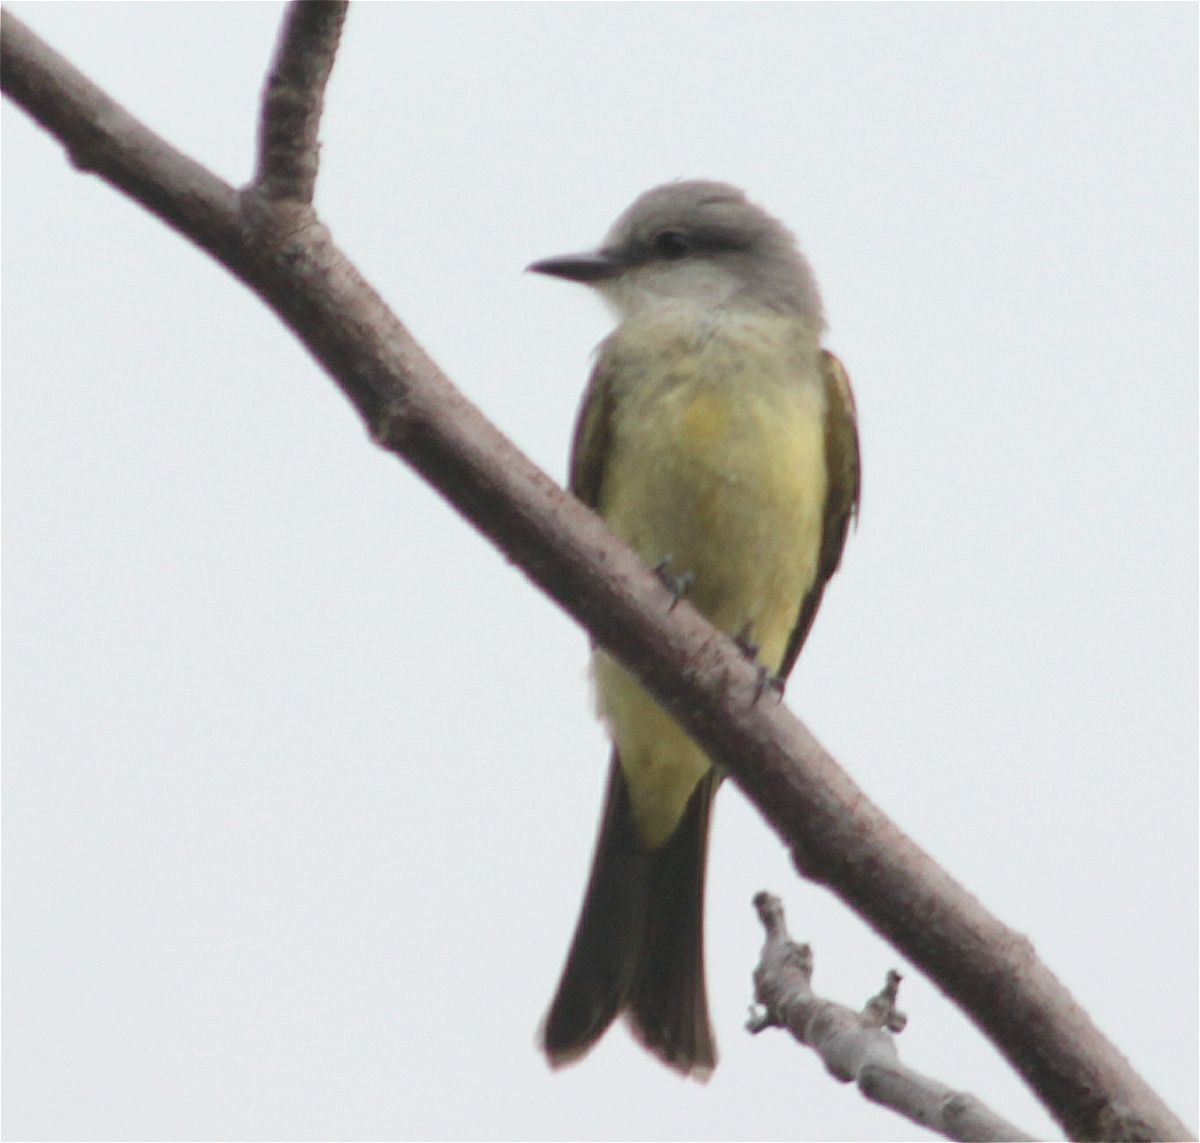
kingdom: Animalia
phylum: Chordata
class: Aves
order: Passeriformes
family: Tyrannidae
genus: Tyrannus
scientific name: Tyrannus melancholicus
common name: Tropical kingbird
